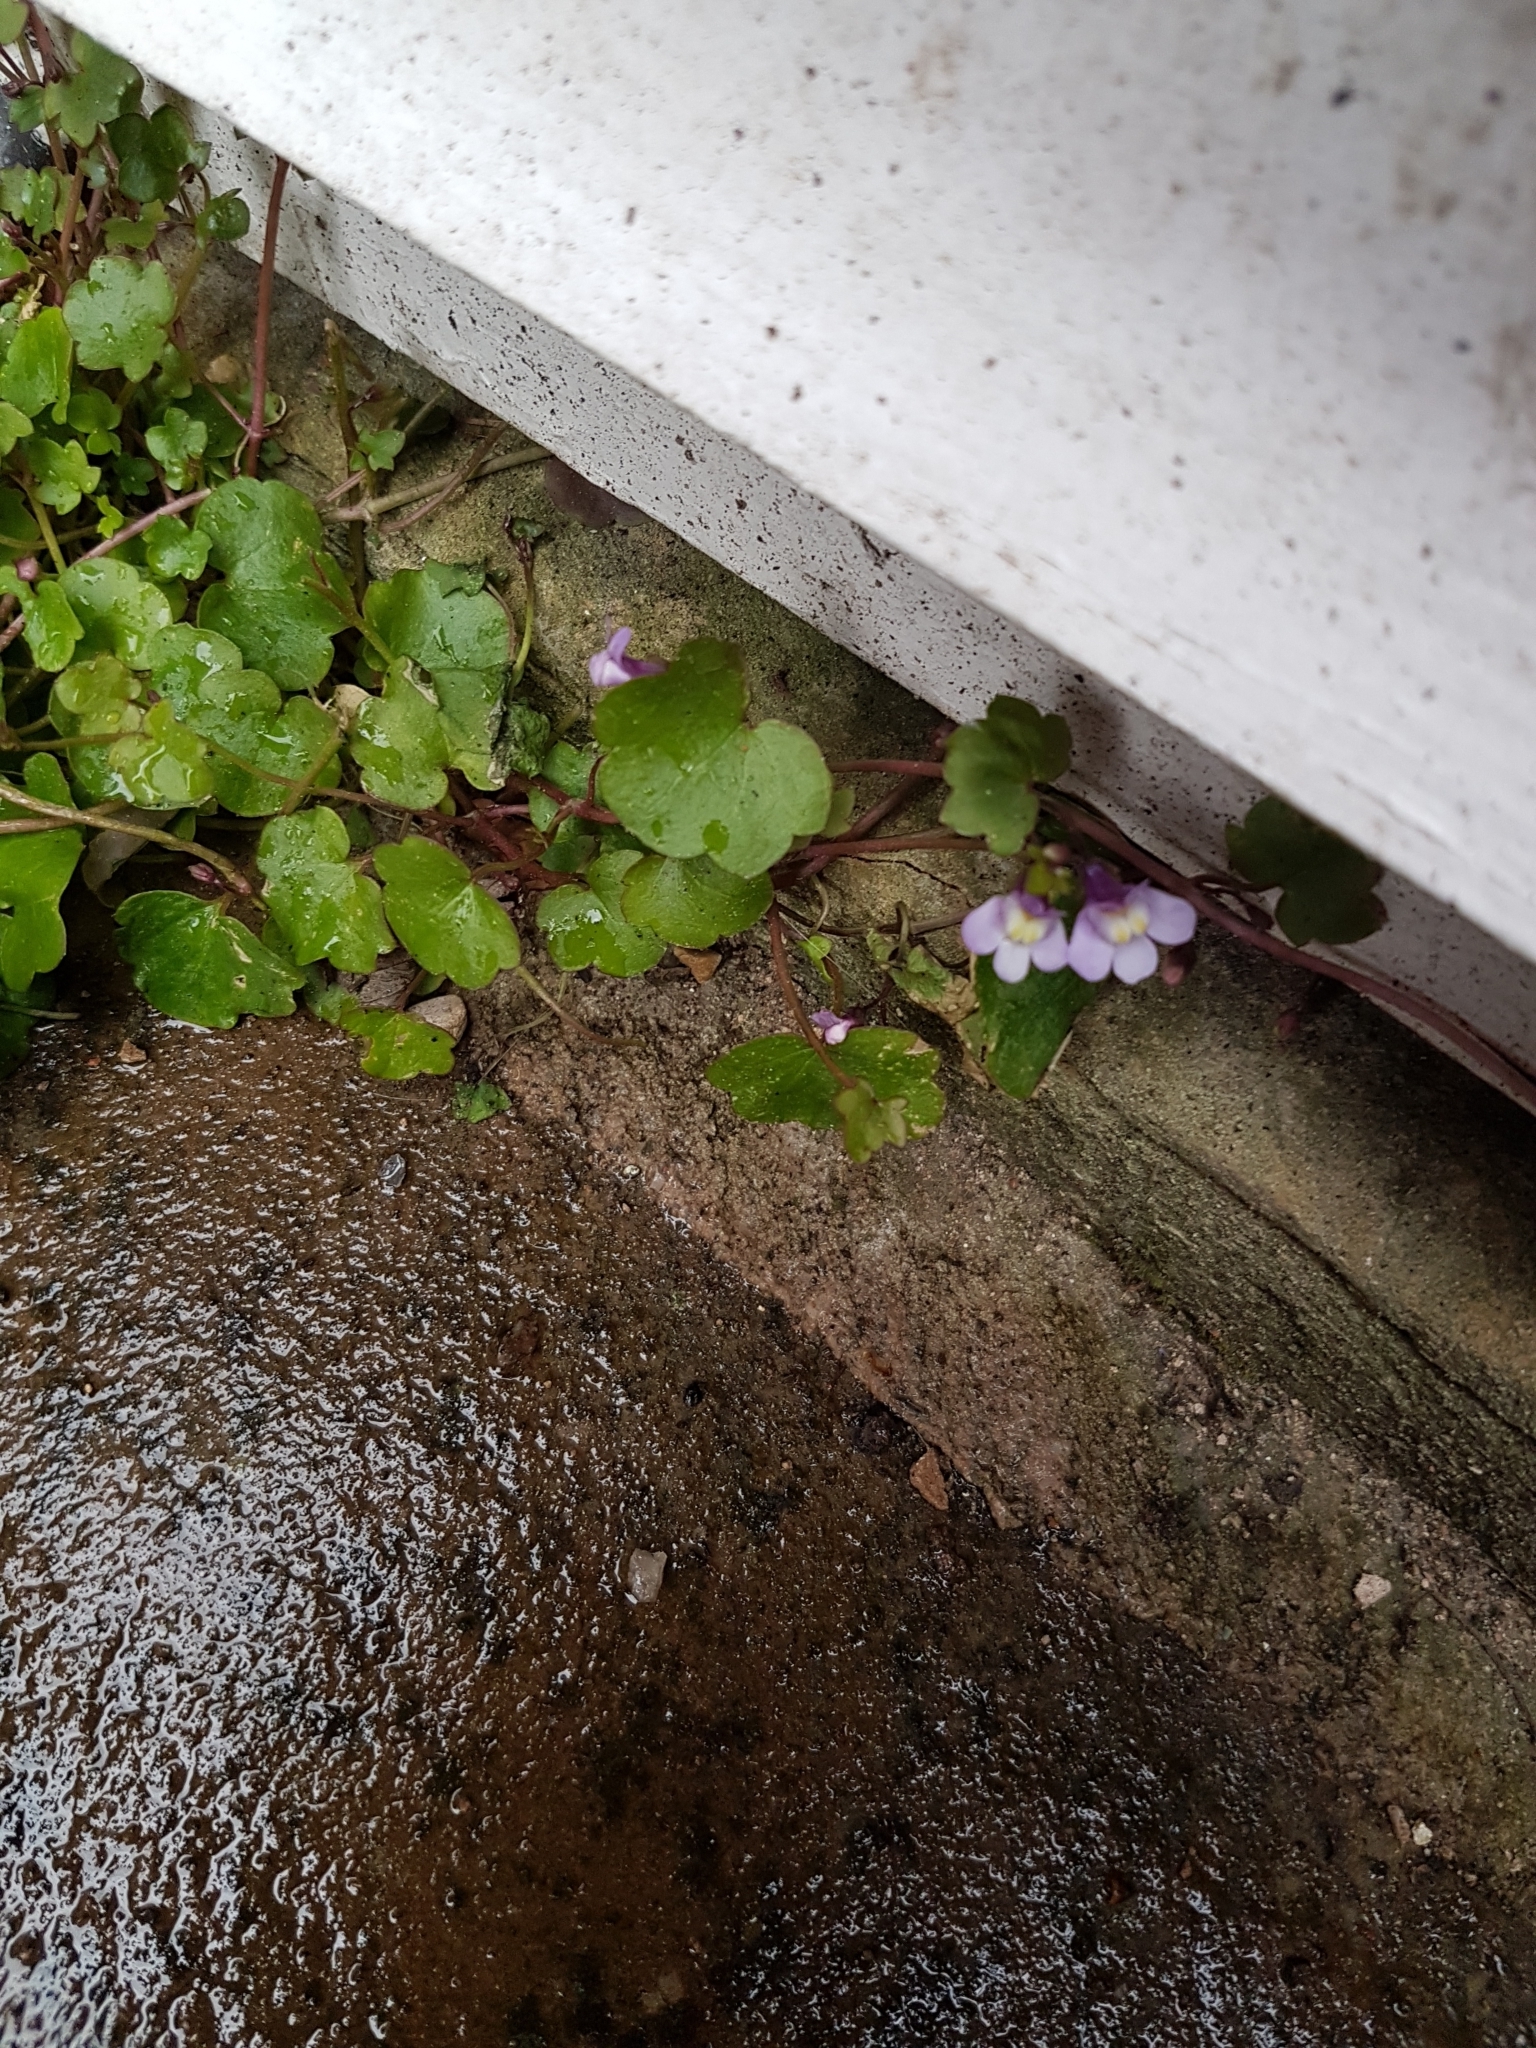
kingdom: Plantae
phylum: Tracheophyta
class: Magnoliopsida
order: Lamiales
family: Plantaginaceae
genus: Cymbalaria
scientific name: Cymbalaria muralis
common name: Ivy-leaved toadflax
